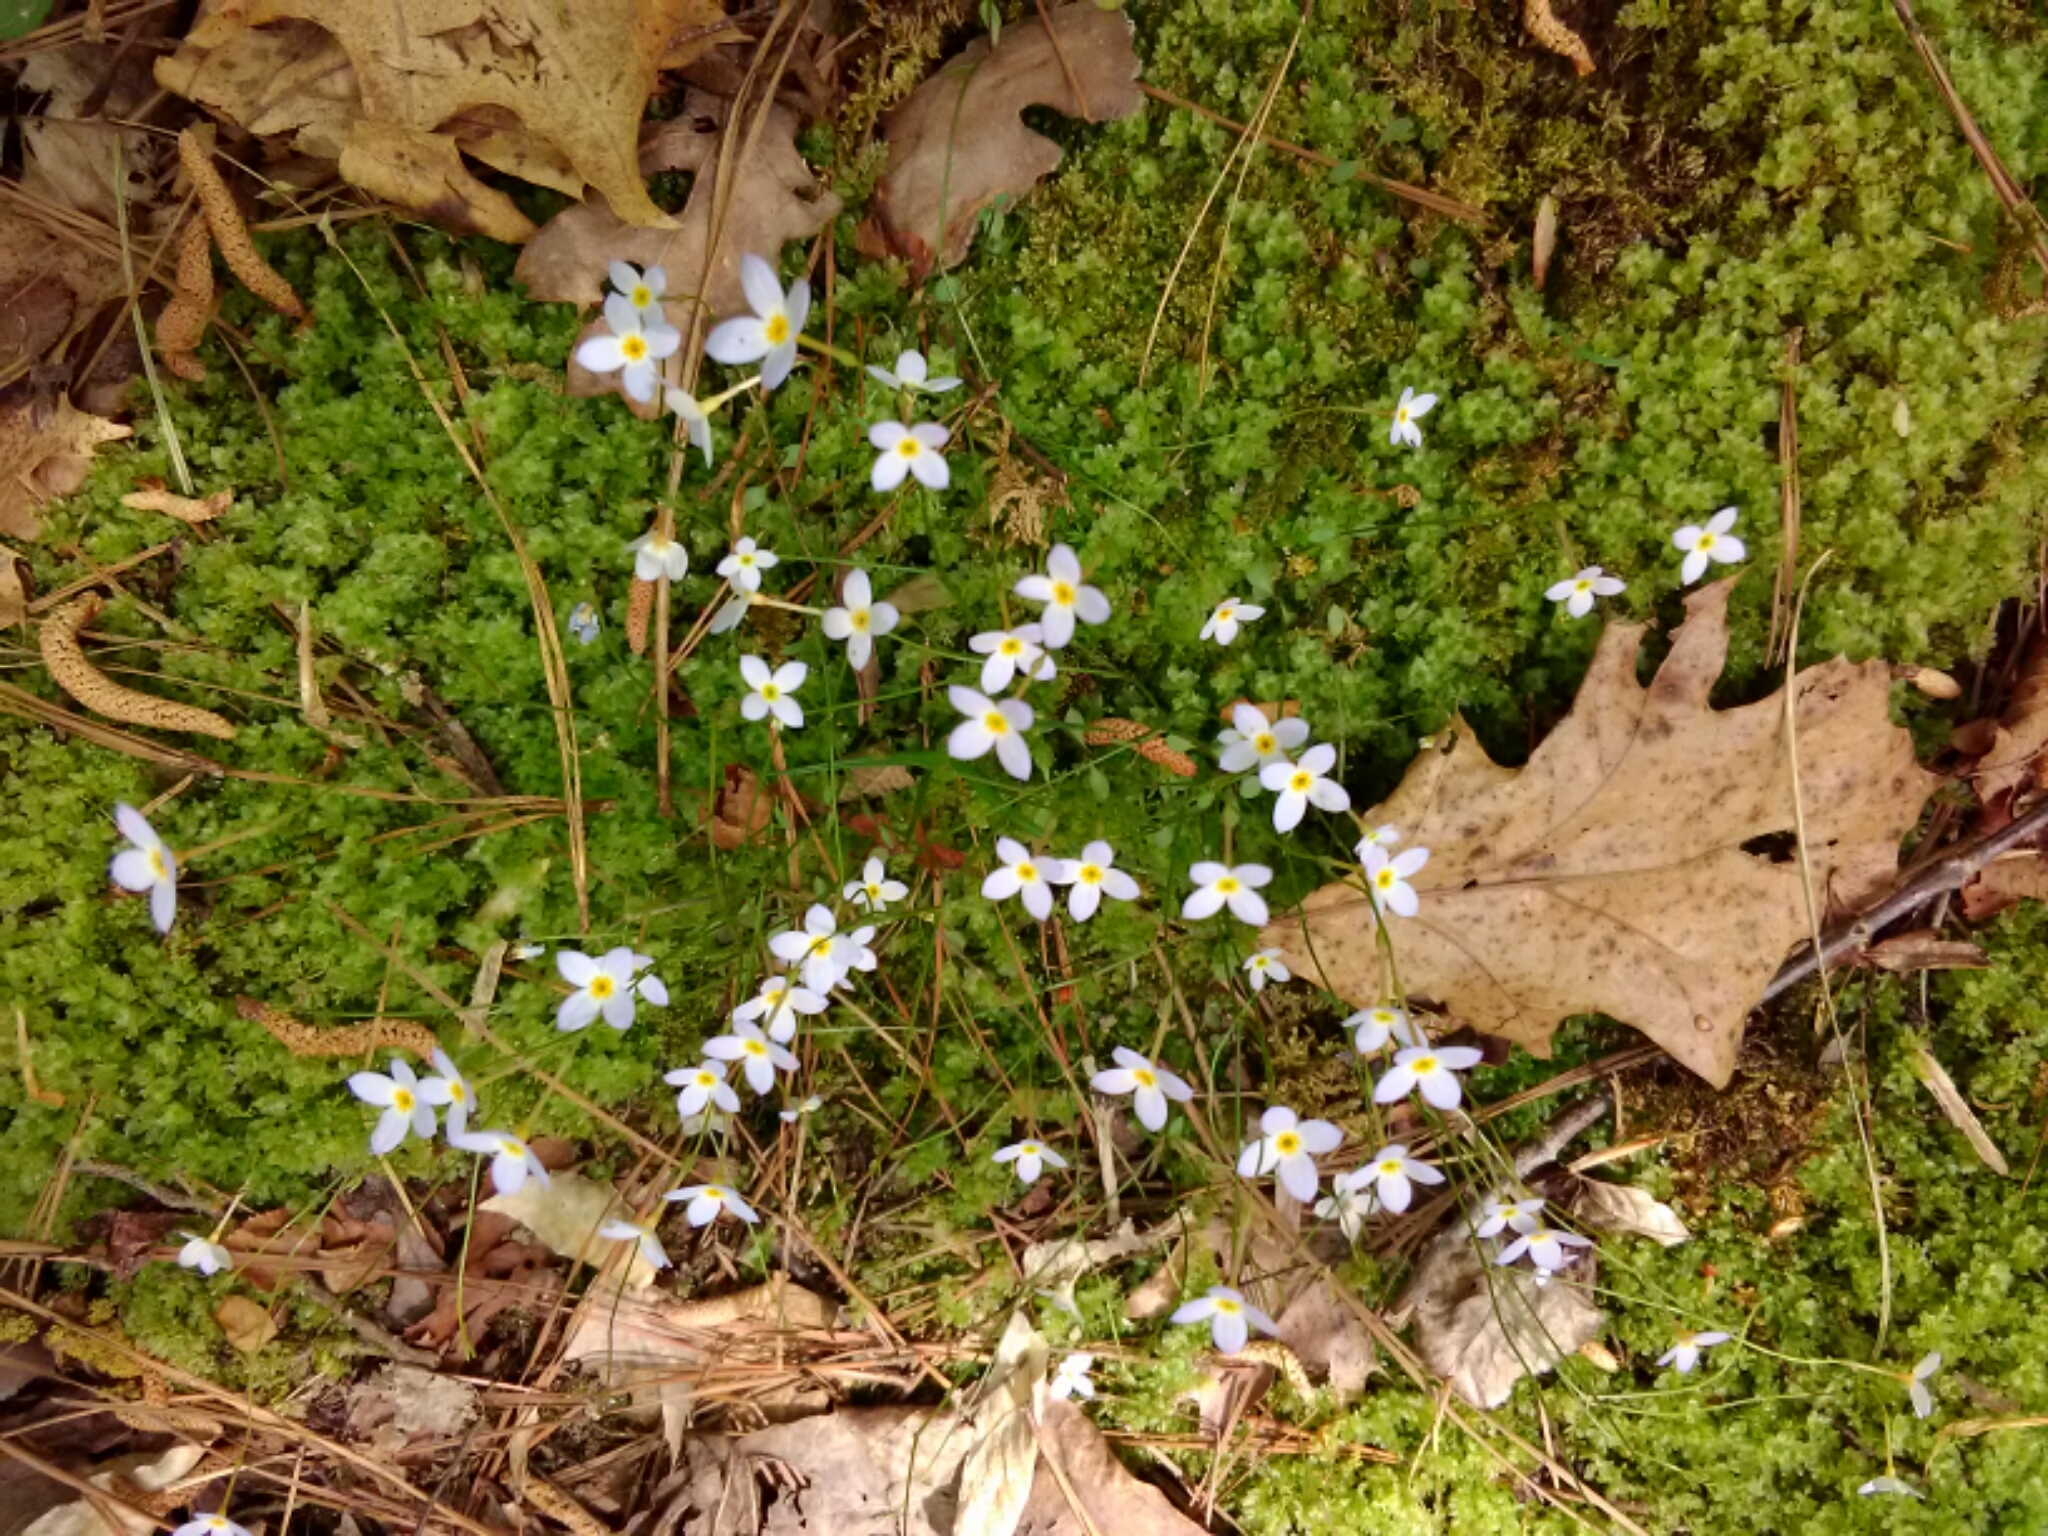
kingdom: Plantae
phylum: Tracheophyta
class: Magnoliopsida
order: Gentianales
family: Rubiaceae
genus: Houstonia
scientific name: Houstonia caerulea
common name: Bluets
